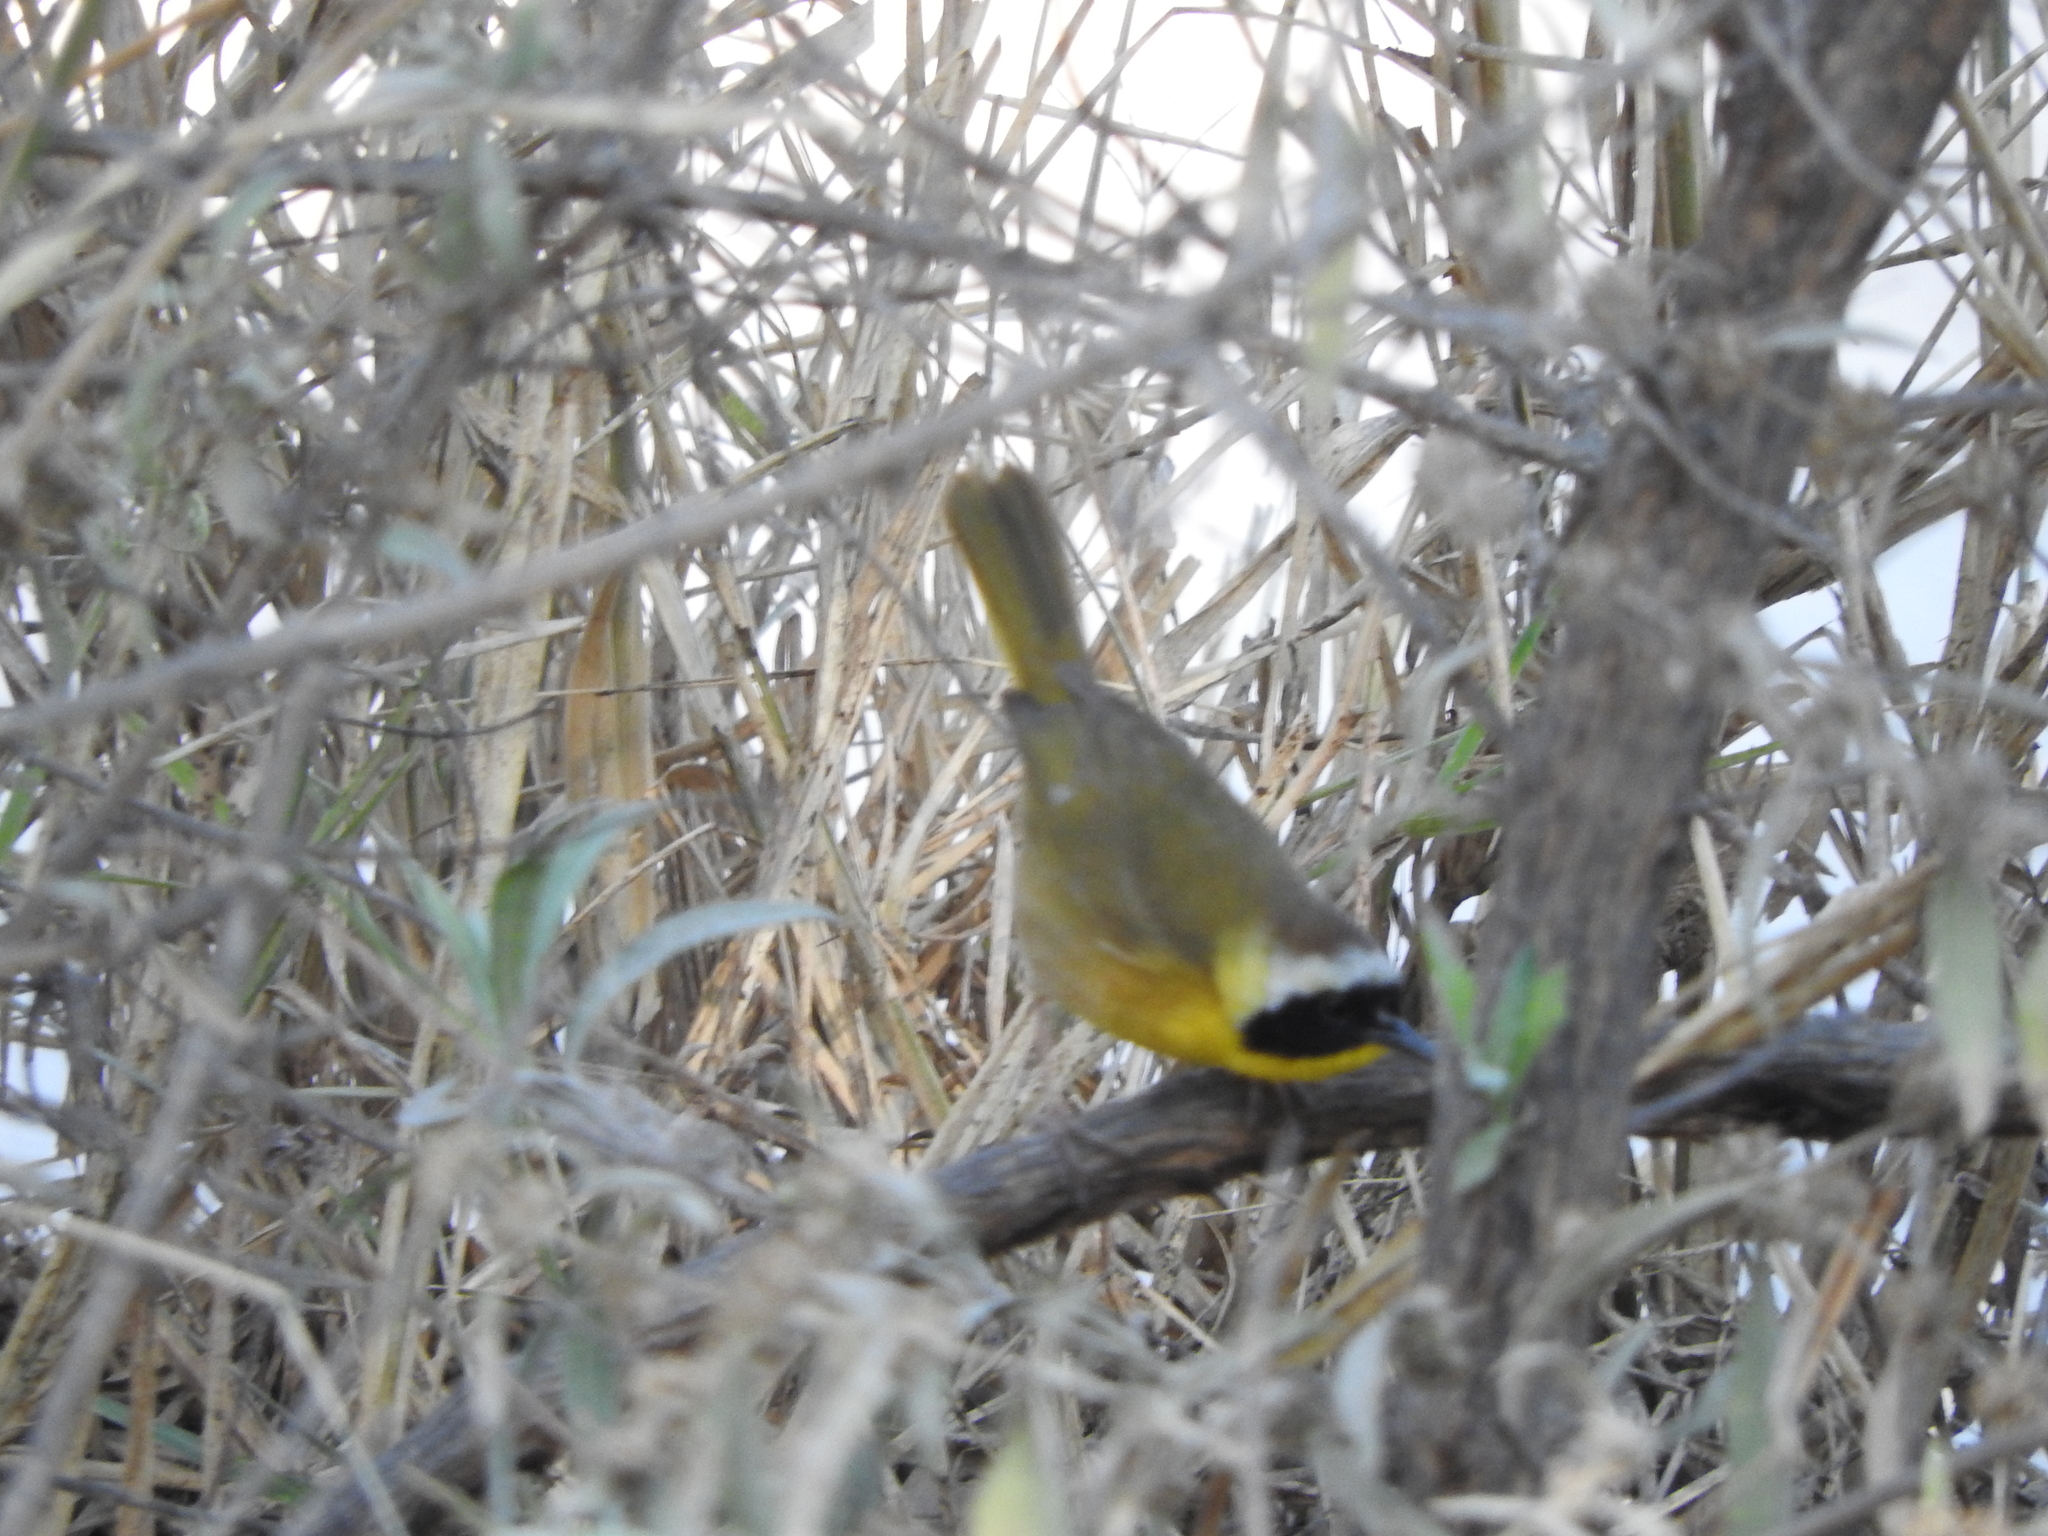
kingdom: Animalia
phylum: Chordata
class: Aves
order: Passeriformes
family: Parulidae
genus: Geothlypis
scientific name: Geothlypis trichas
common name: Common yellowthroat
